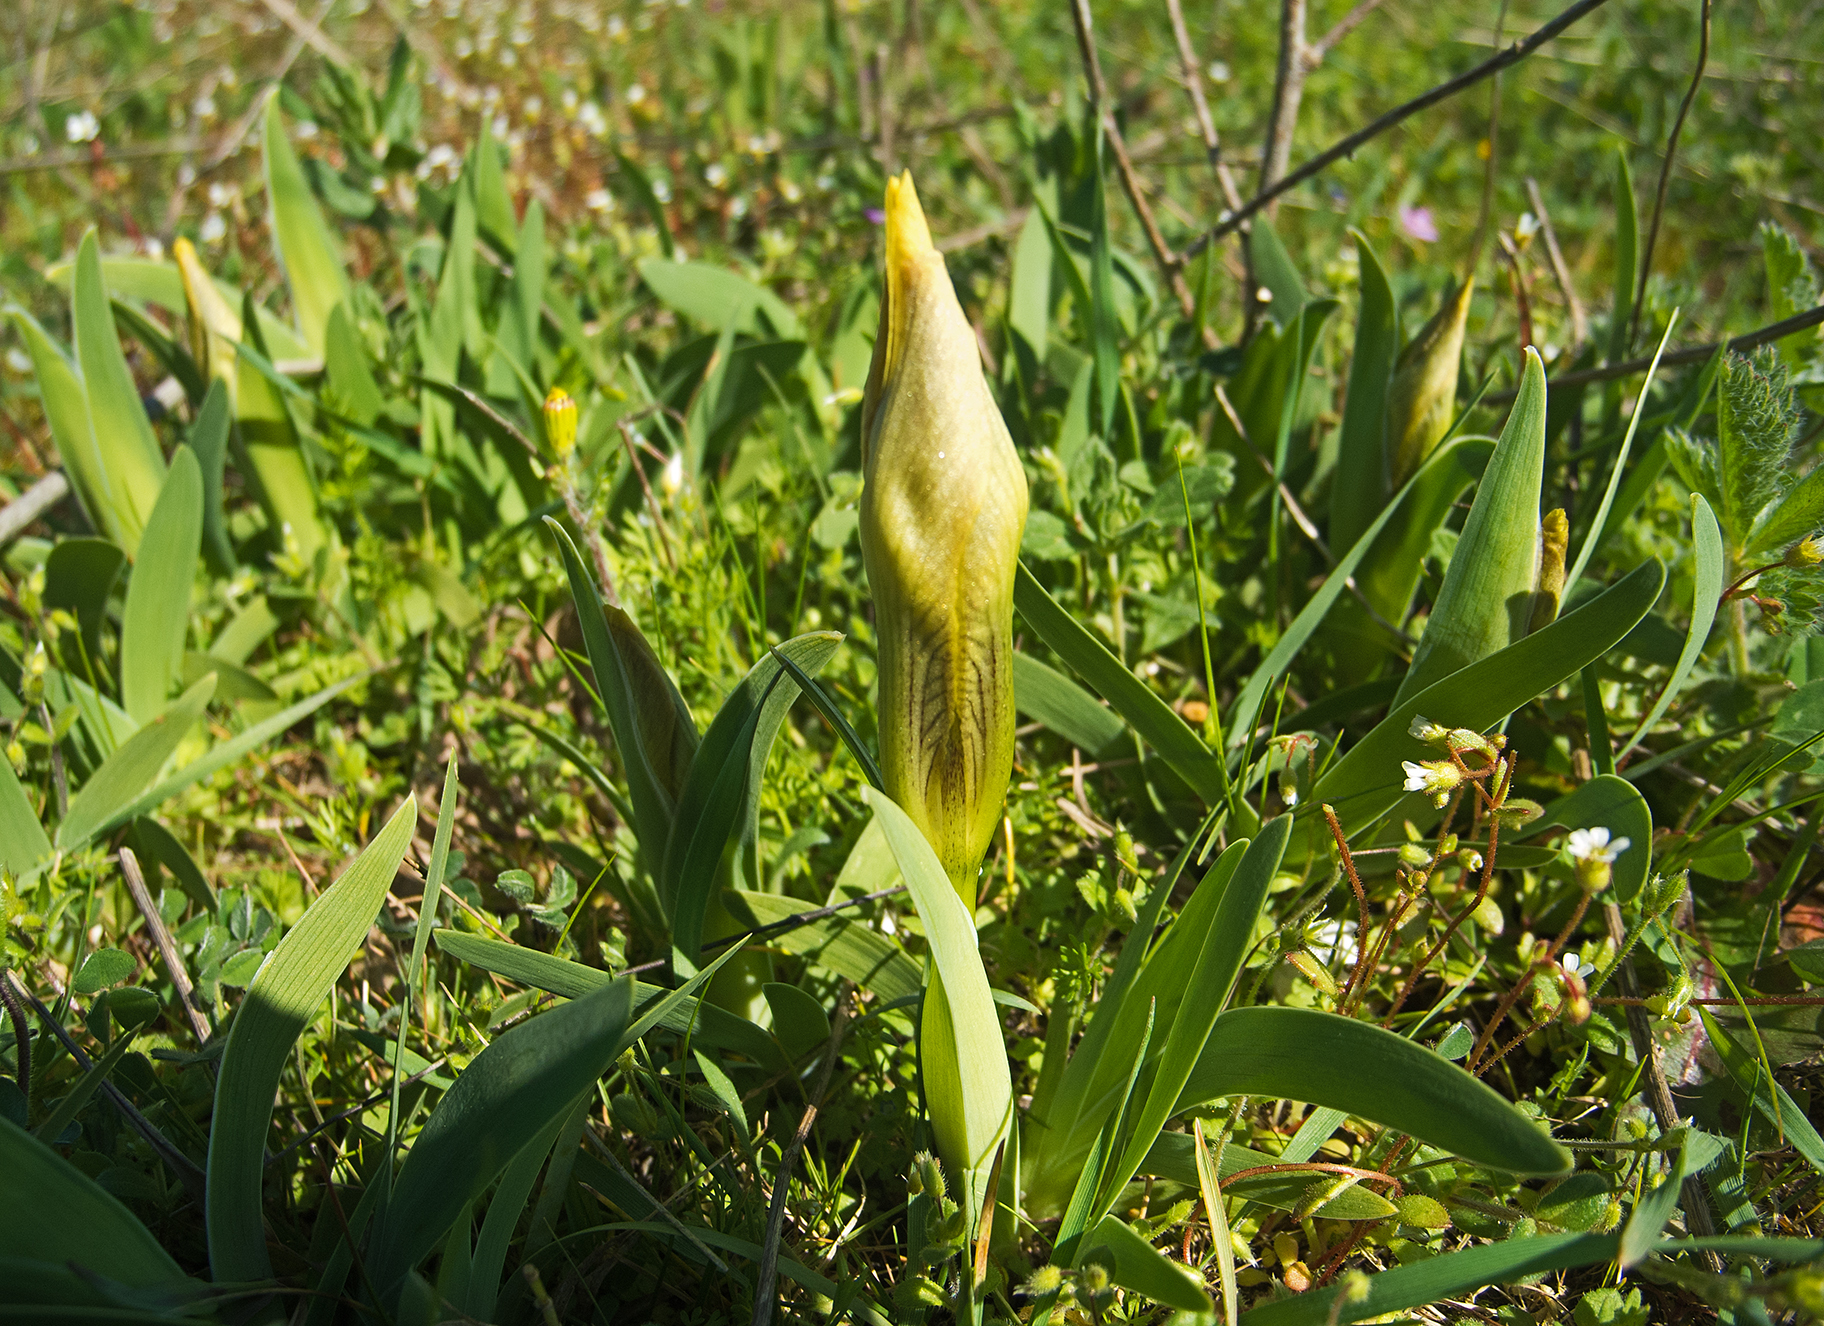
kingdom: Plantae
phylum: Tracheophyta
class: Liliopsida
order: Asparagales
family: Iridaceae
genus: Iris
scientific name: Iris suaveolens
